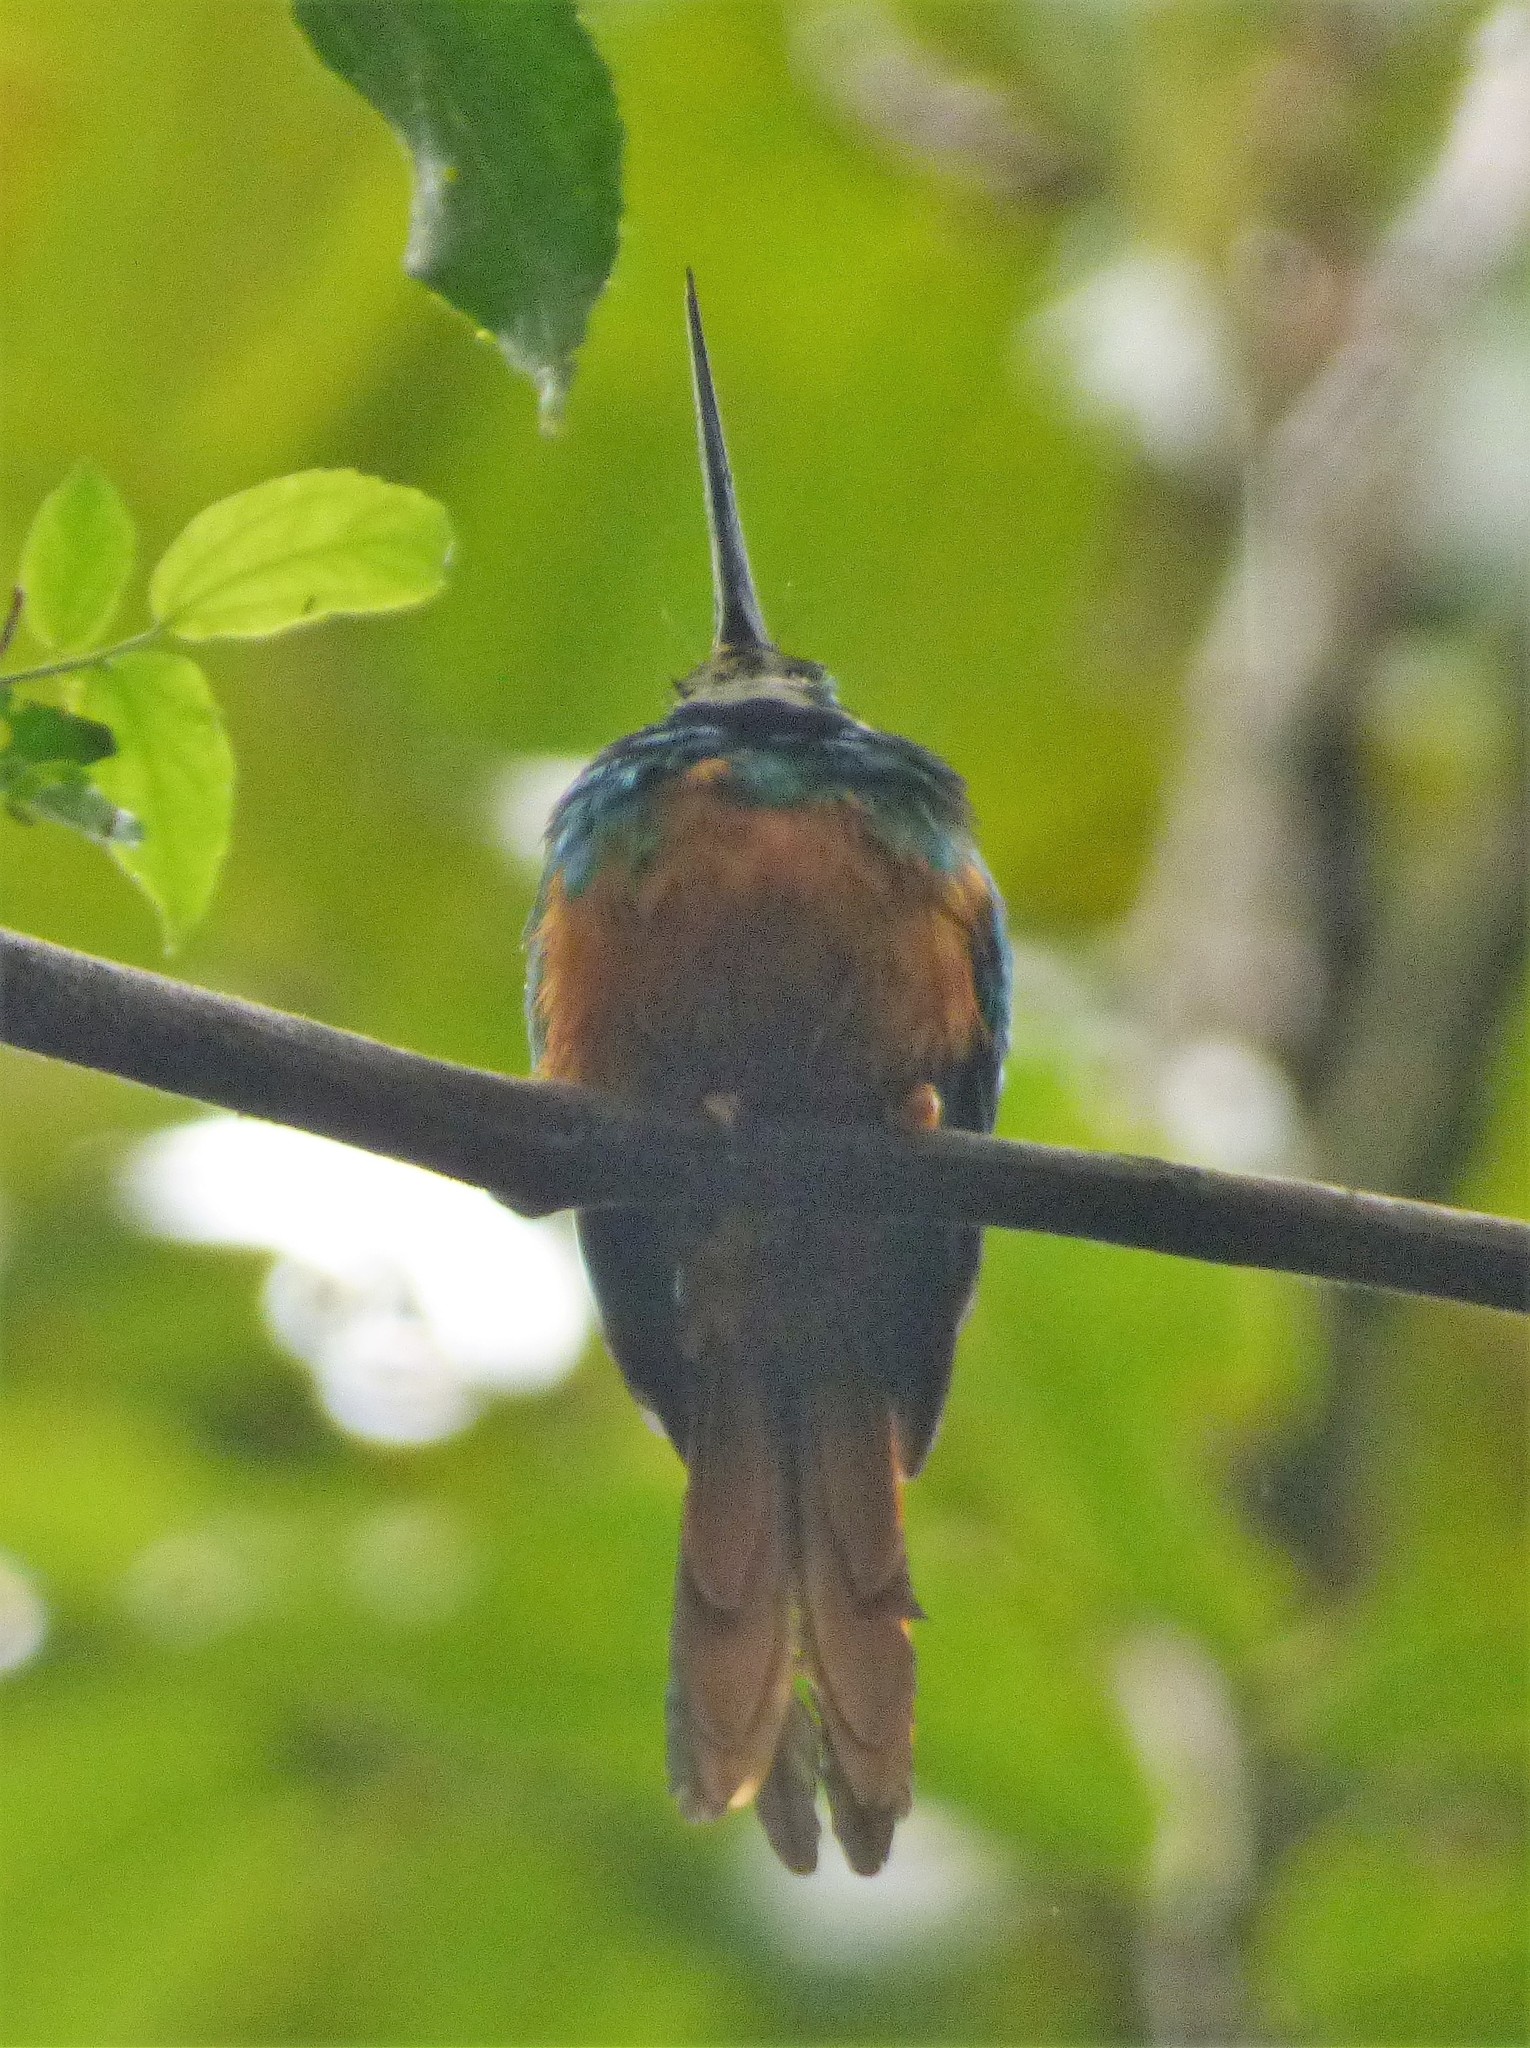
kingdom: Animalia
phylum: Chordata
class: Aves
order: Piciformes
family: Galbulidae
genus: Galbula
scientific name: Galbula ruficauda
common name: Rufous-tailed jacamar
